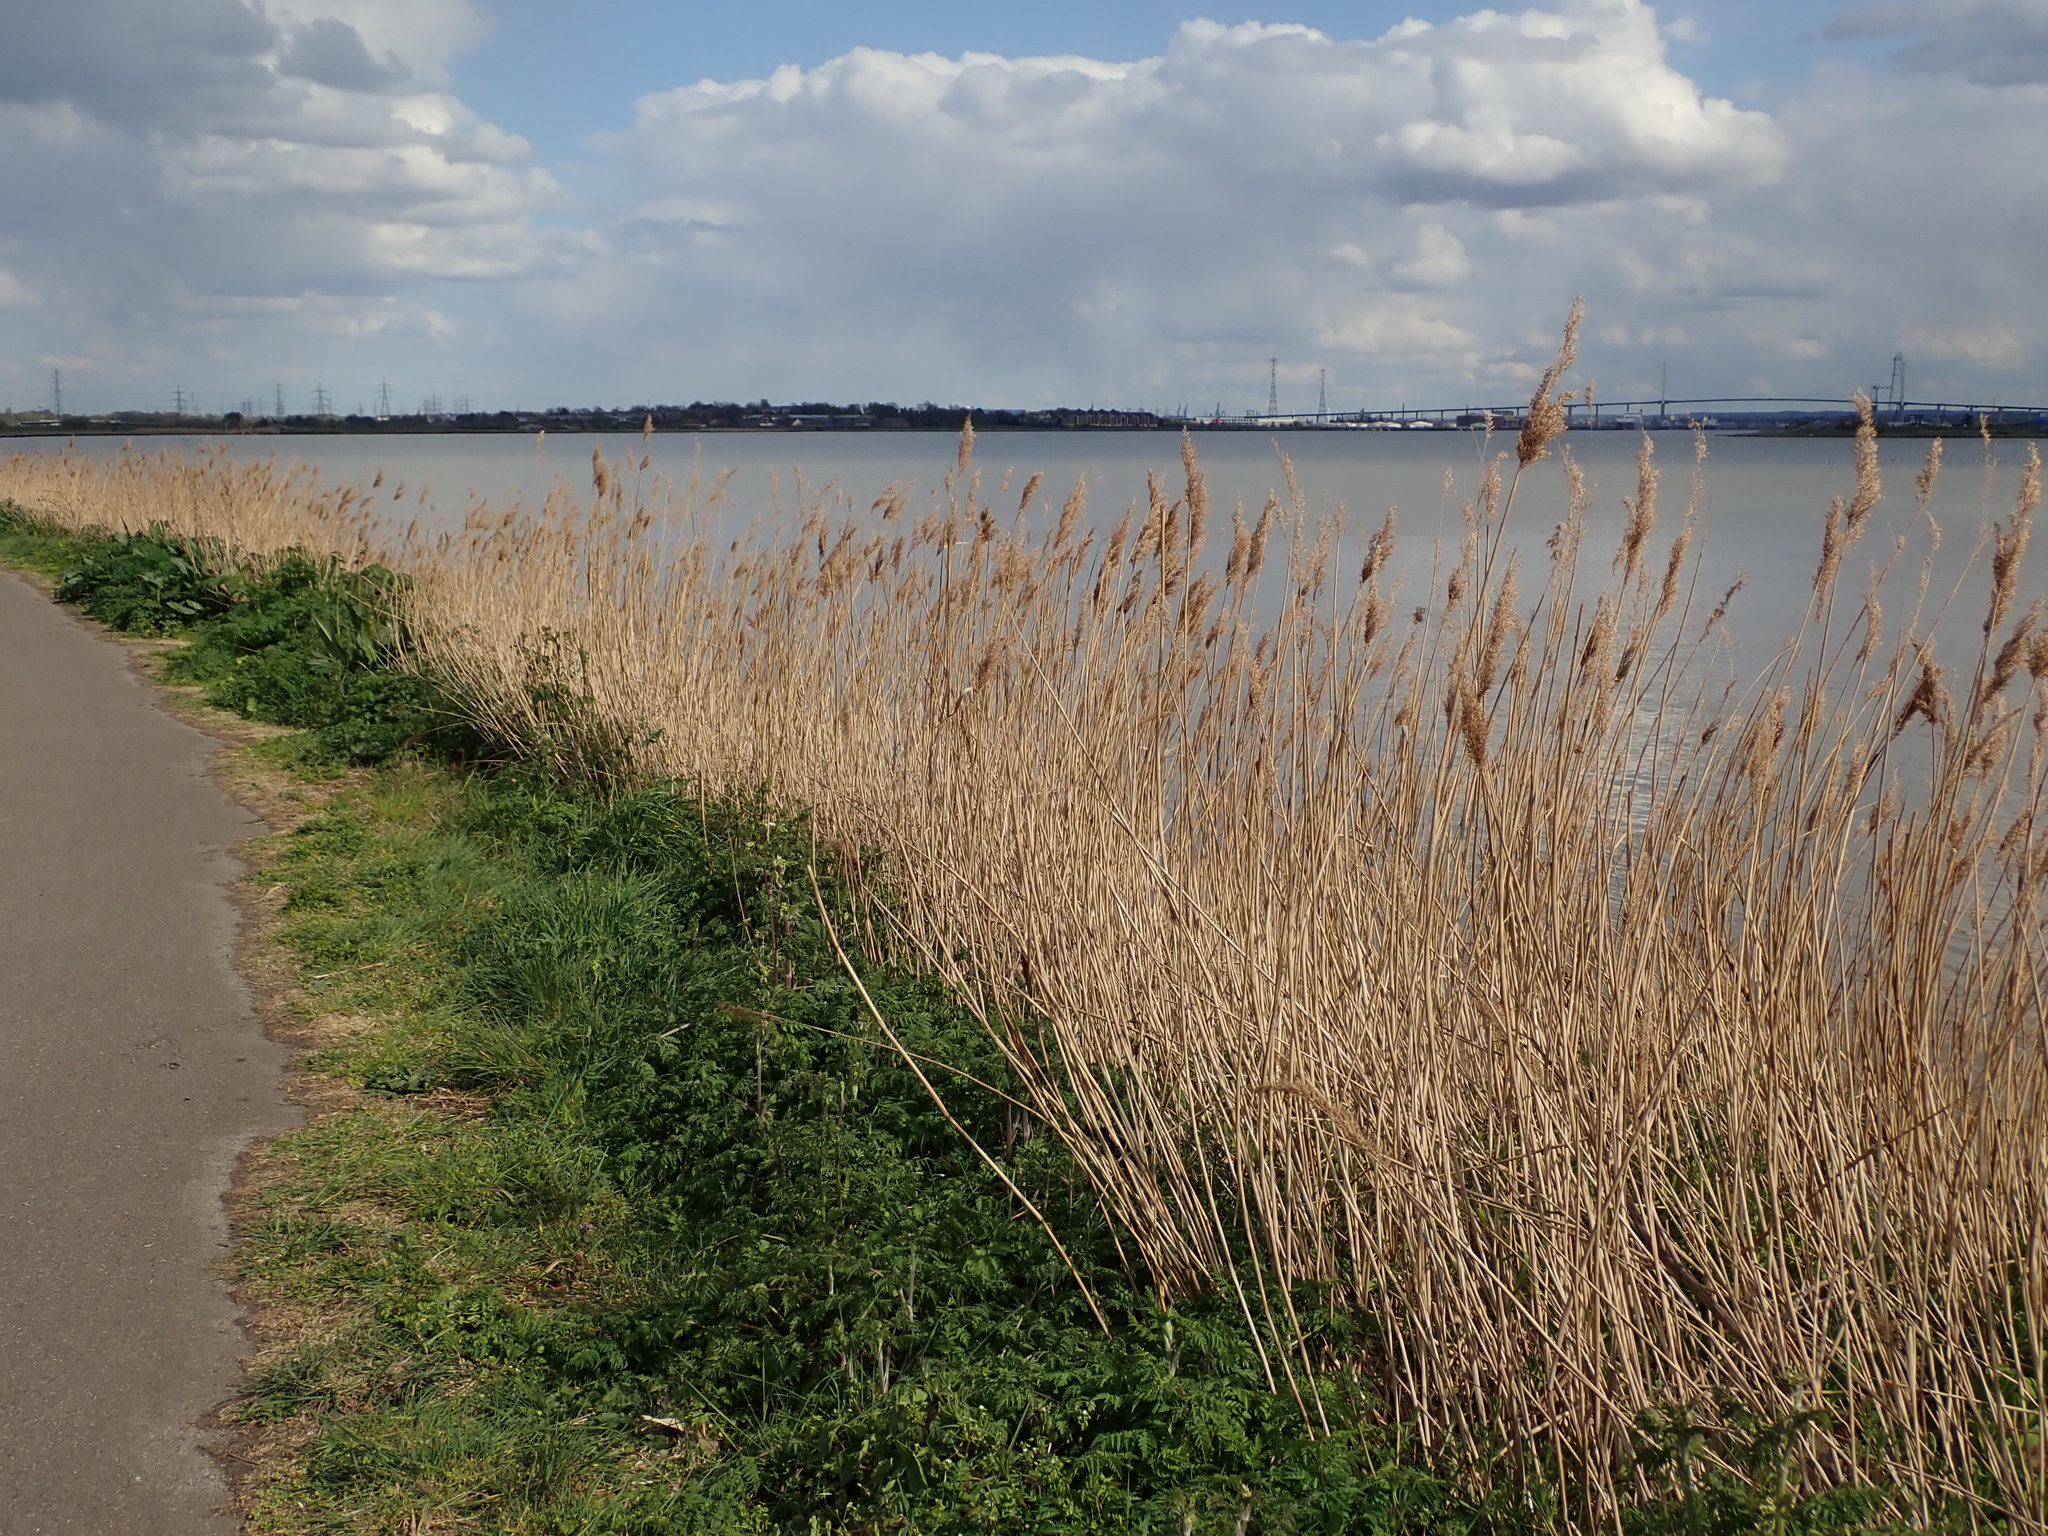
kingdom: Plantae
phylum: Tracheophyta
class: Liliopsida
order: Poales
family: Poaceae
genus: Phragmites
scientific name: Phragmites australis
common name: Common reed
